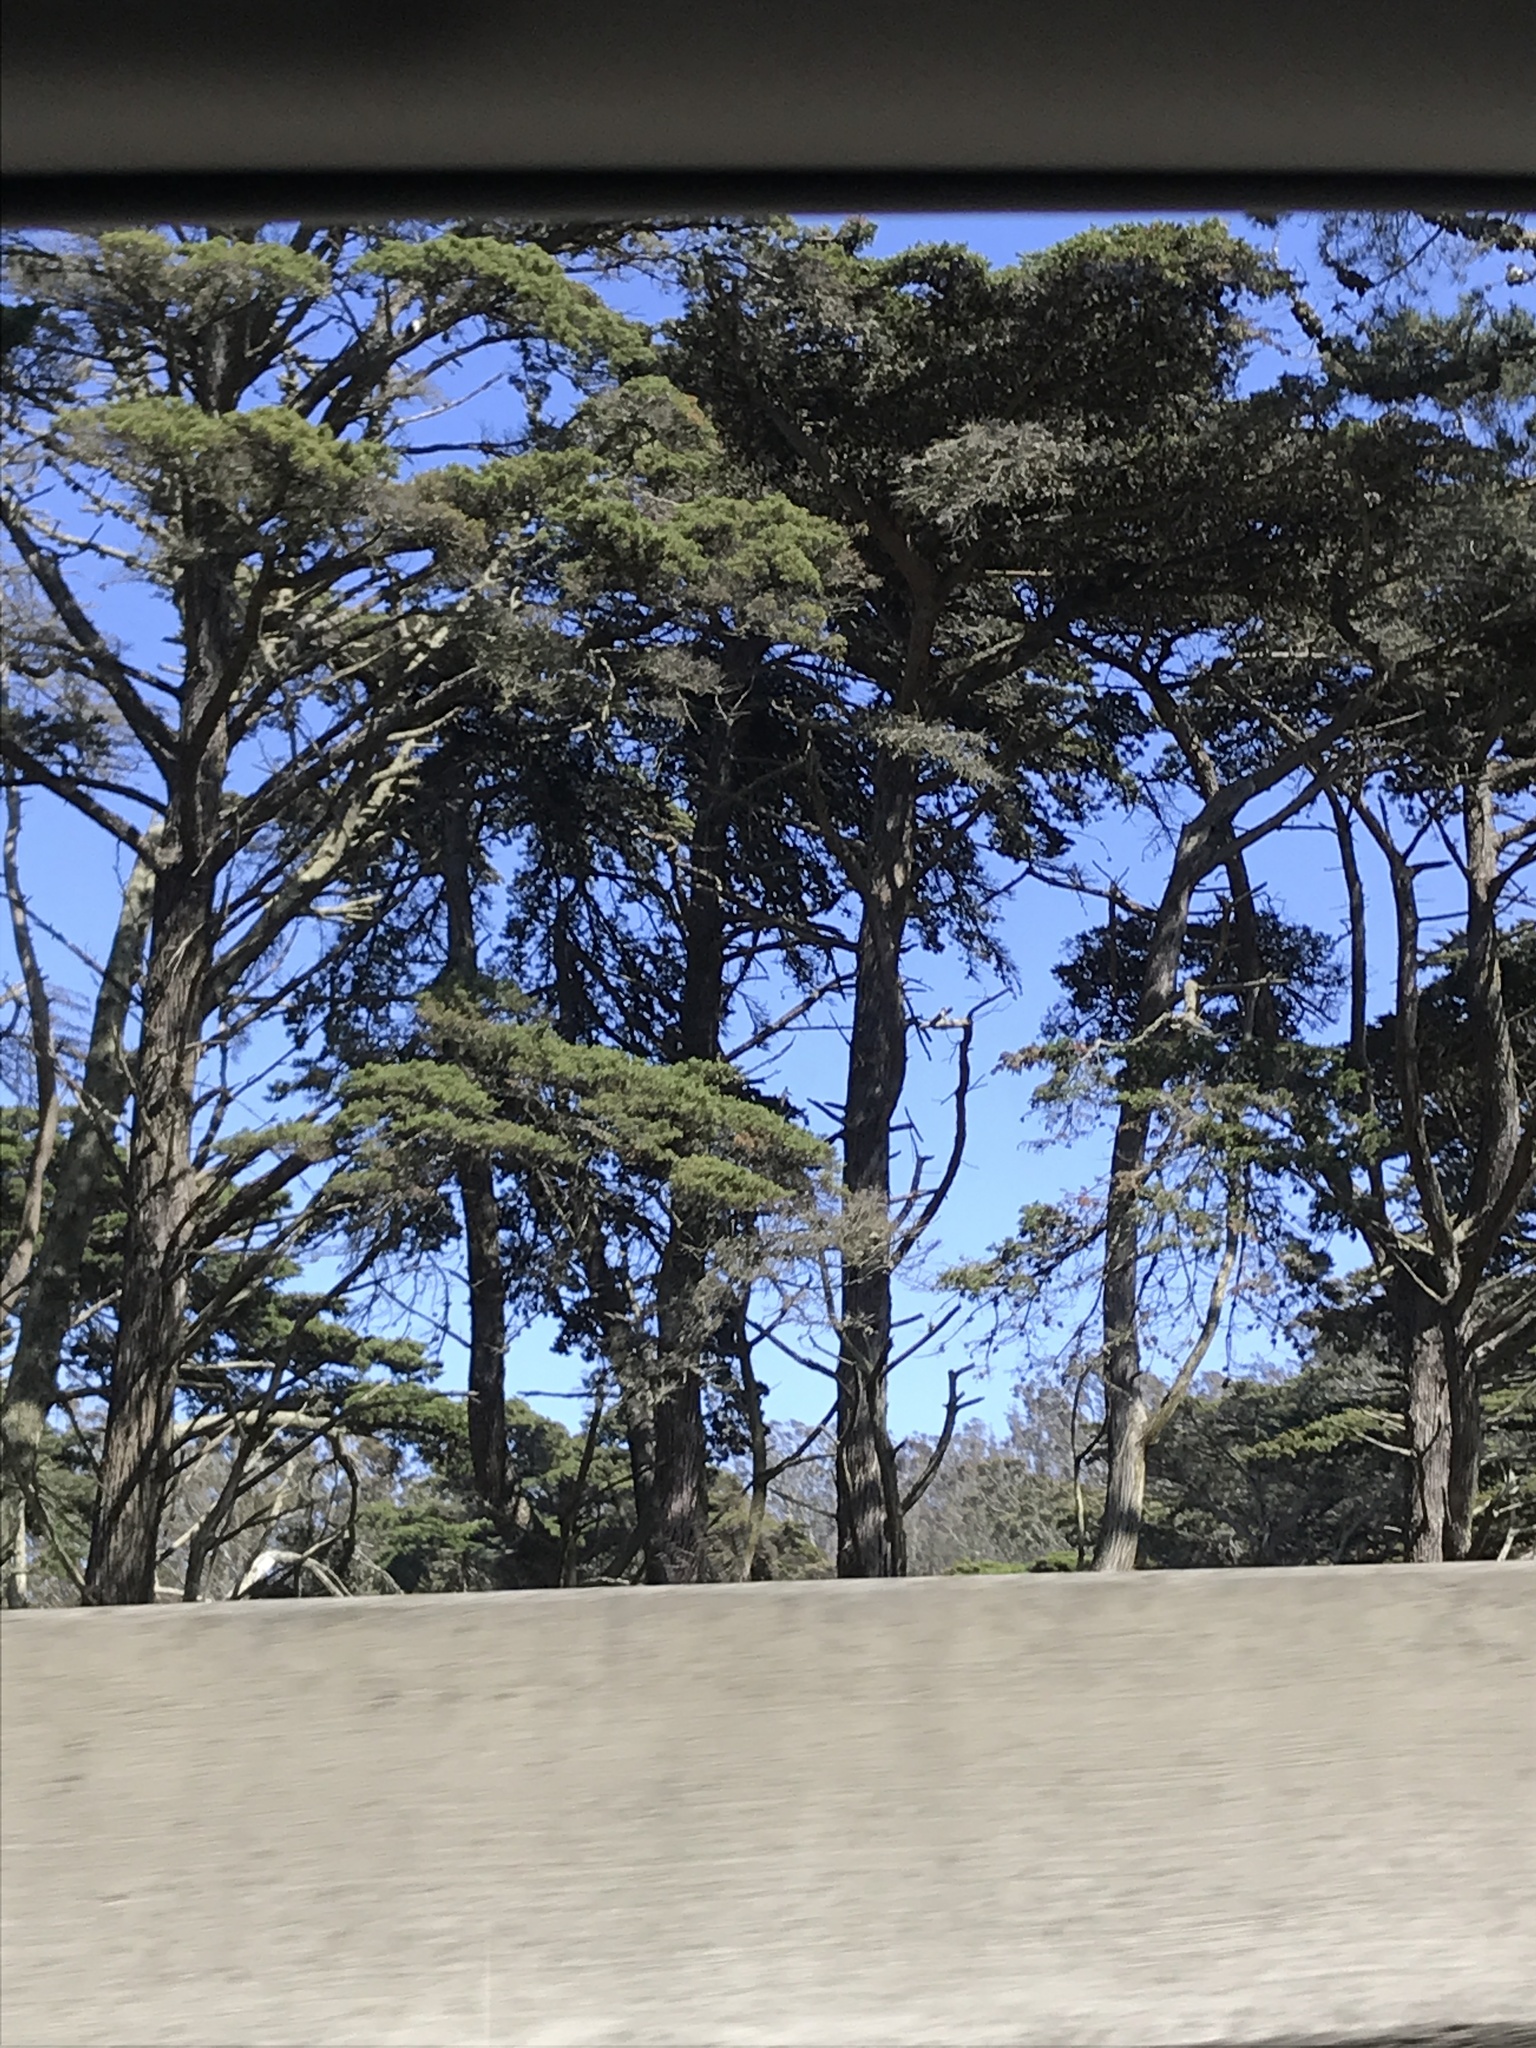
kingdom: Plantae
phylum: Tracheophyta
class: Pinopsida
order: Pinales
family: Cupressaceae
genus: Cupressus
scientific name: Cupressus macrocarpa
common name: Monterey cypress
